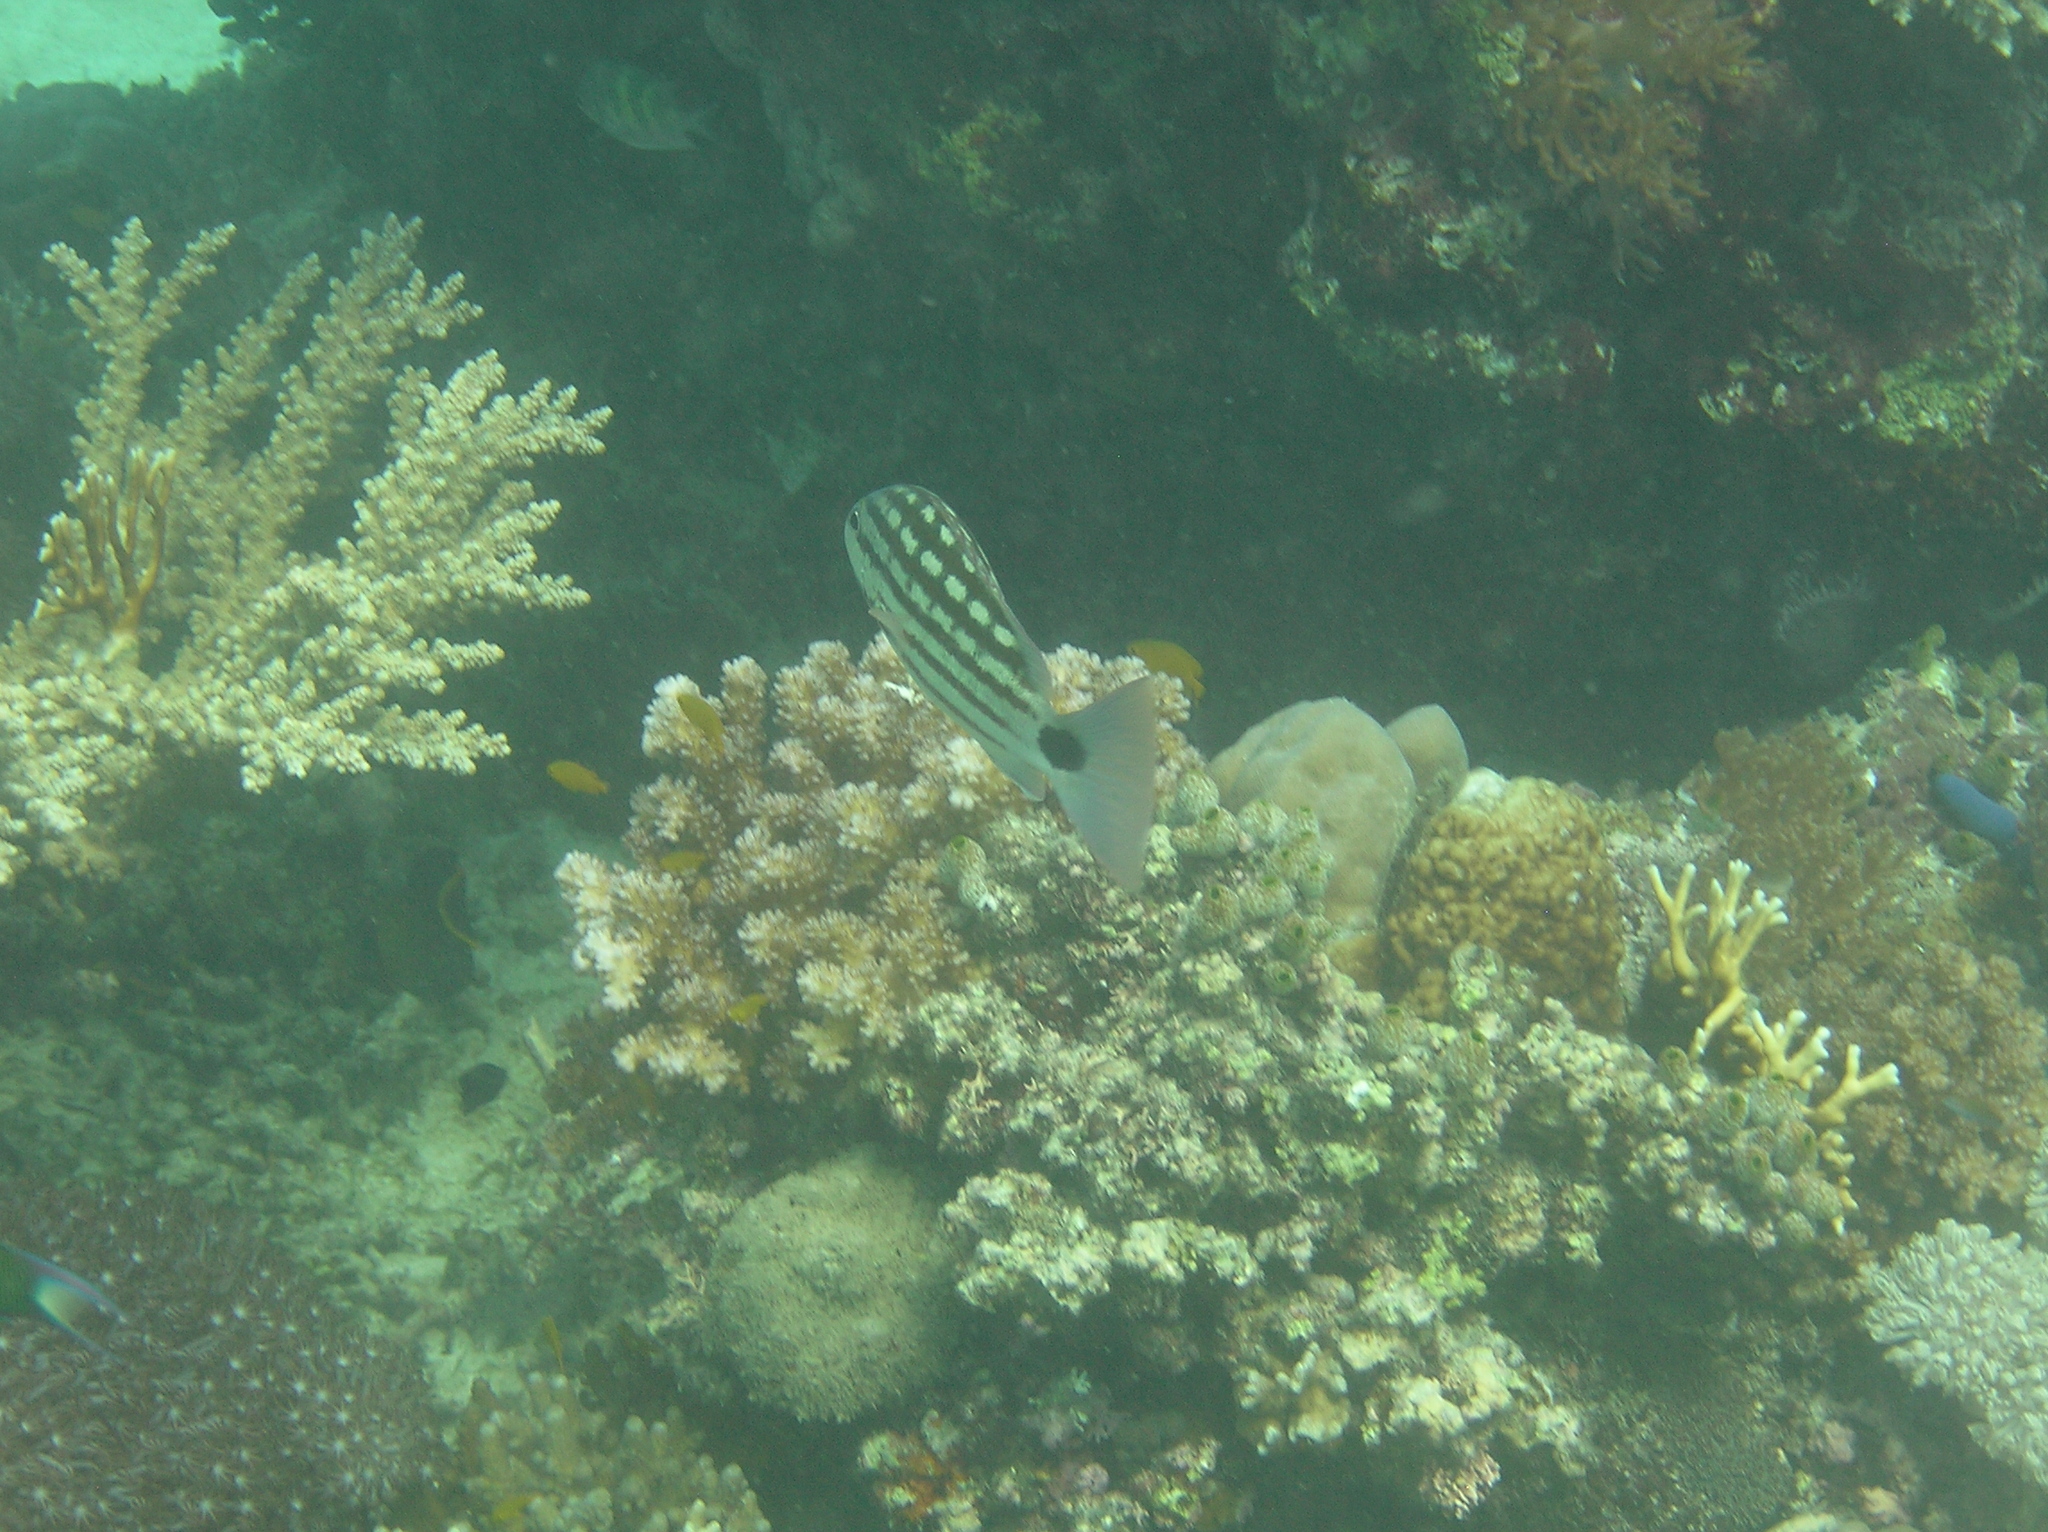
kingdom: Animalia
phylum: Chordata
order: Perciformes
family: Lutjanidae
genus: Lutjanus
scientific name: Lutjanus decussatus
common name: Checkered snapper
